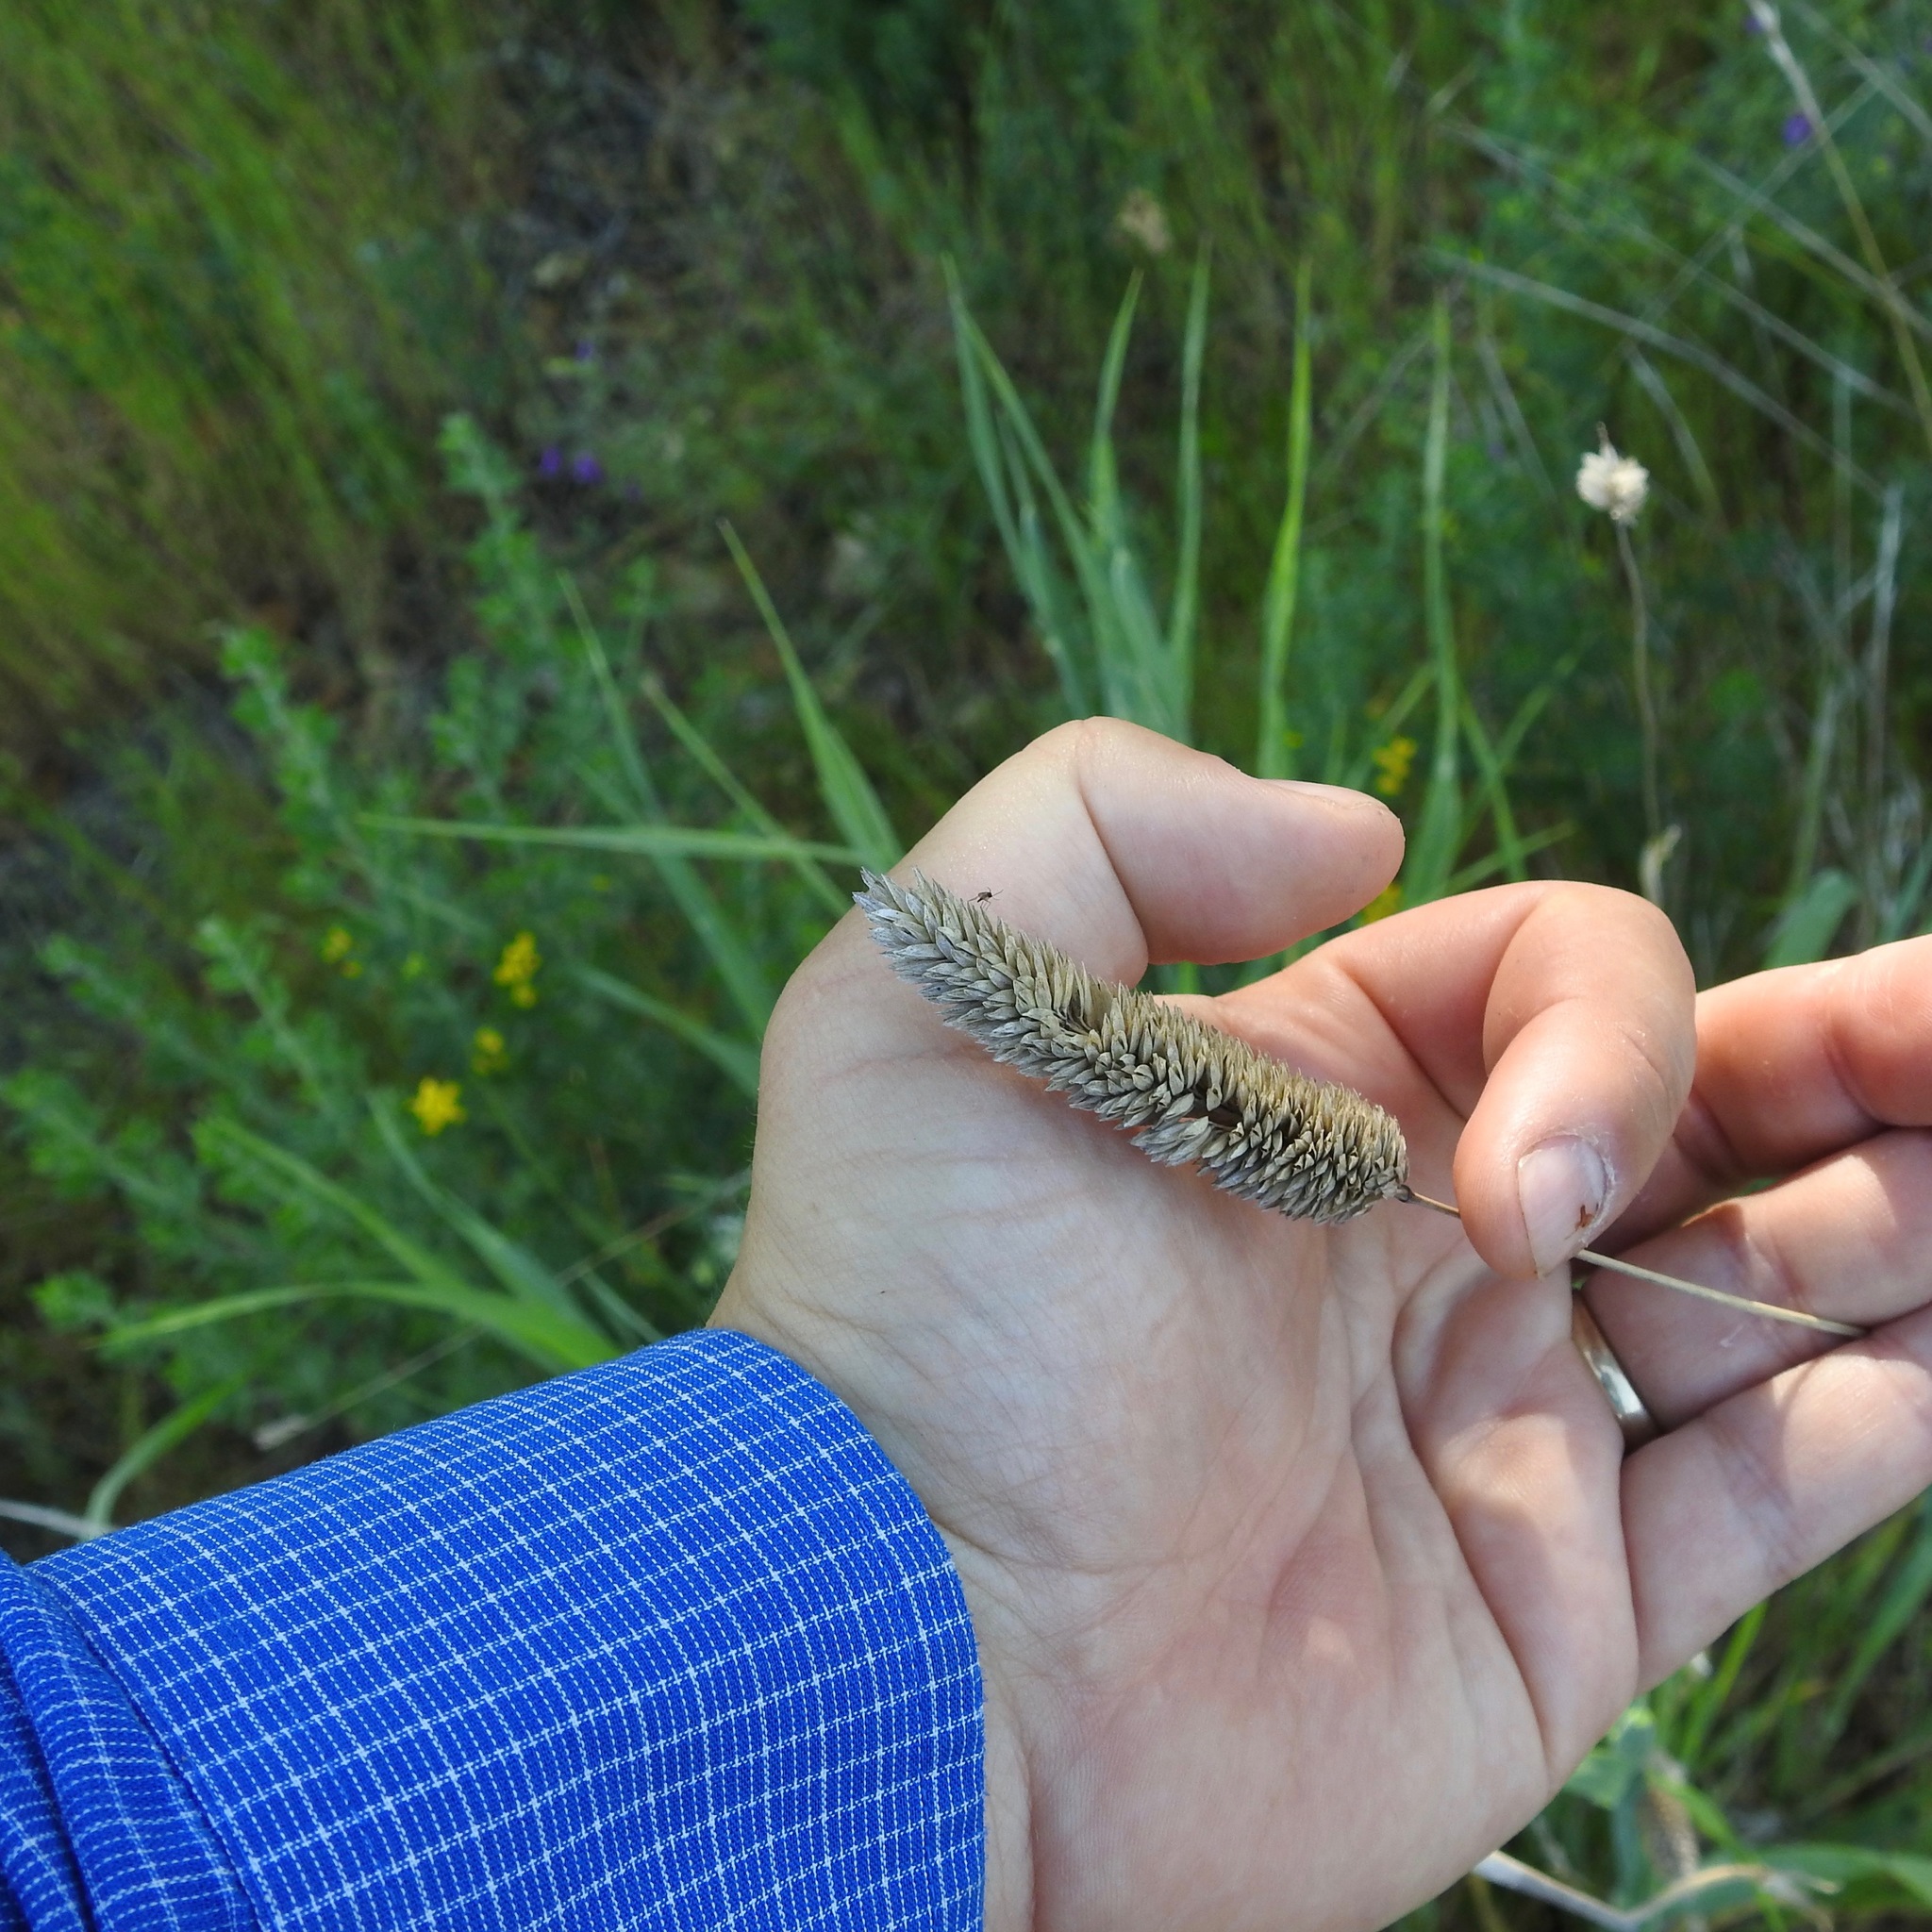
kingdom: Plantae
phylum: Tracheophyta
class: Liliopsida
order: Poales
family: Poaceae
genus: Phalaris
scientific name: Phalaris aquatica
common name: Bulbous canary-grass
